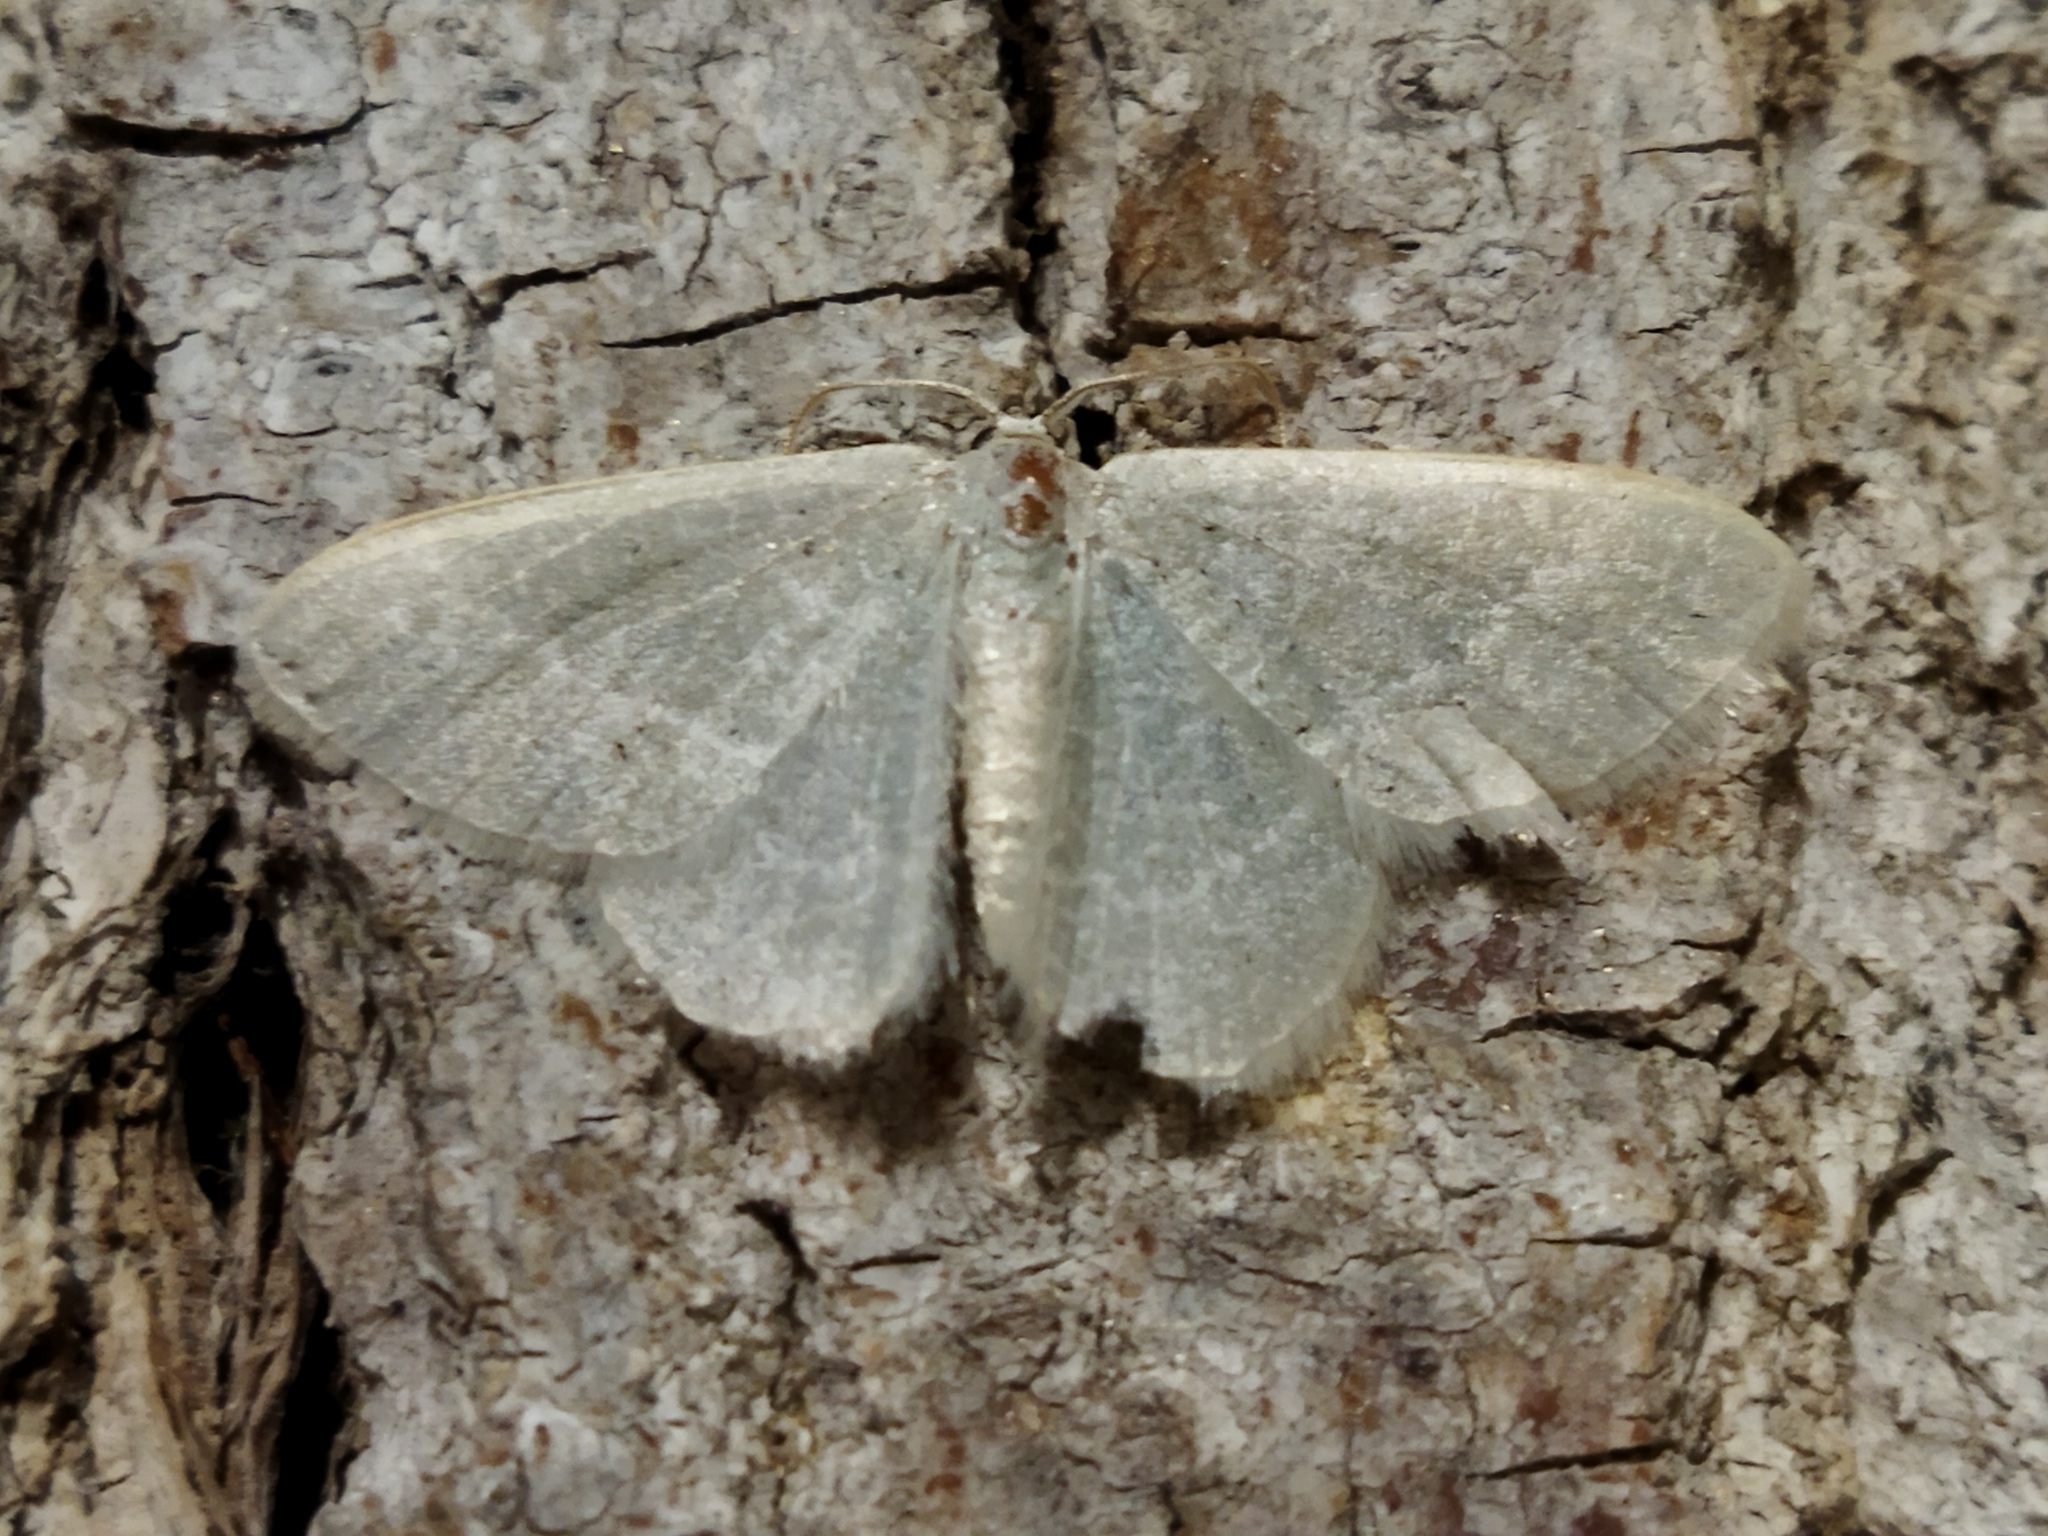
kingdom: Animalia
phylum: Arthropoda
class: Insecta
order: Lepidoptera
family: Geometridae
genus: Chlorissa
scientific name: Chlorissa etruscaria
